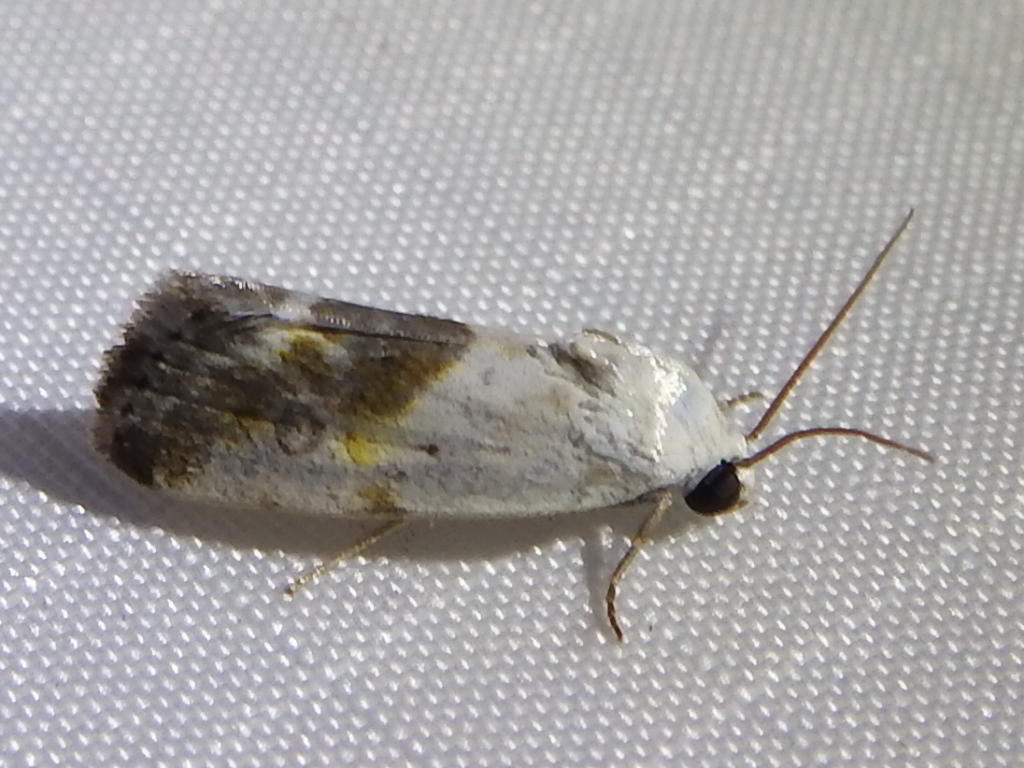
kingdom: Animalia
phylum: Arthropoda
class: Insecta
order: Lepidoptera
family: Noctuidae
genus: Acontia
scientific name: Acontia candefacta
